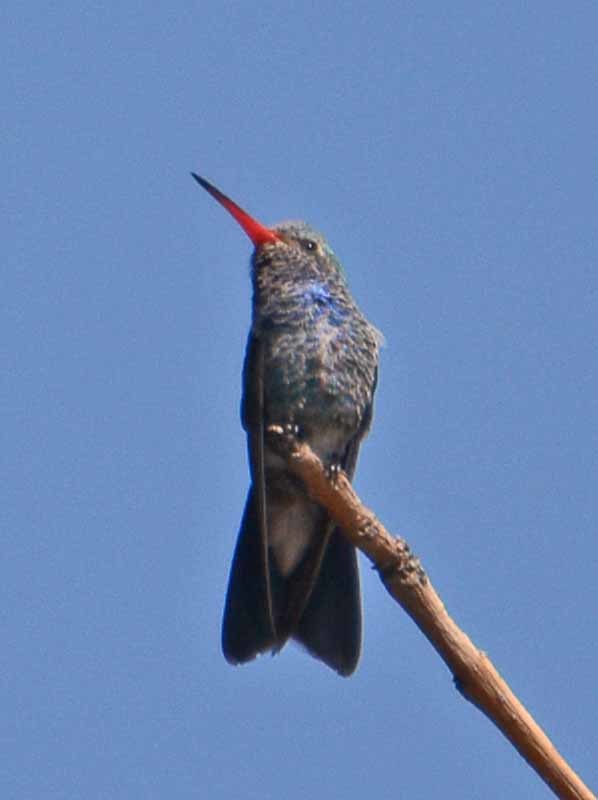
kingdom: Animalia
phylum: Chordata
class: Aves
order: Apodiformes
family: Trochilidae
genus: Cynanthus
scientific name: Cynanthus latirostris
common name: Broad-billed hummingbird
